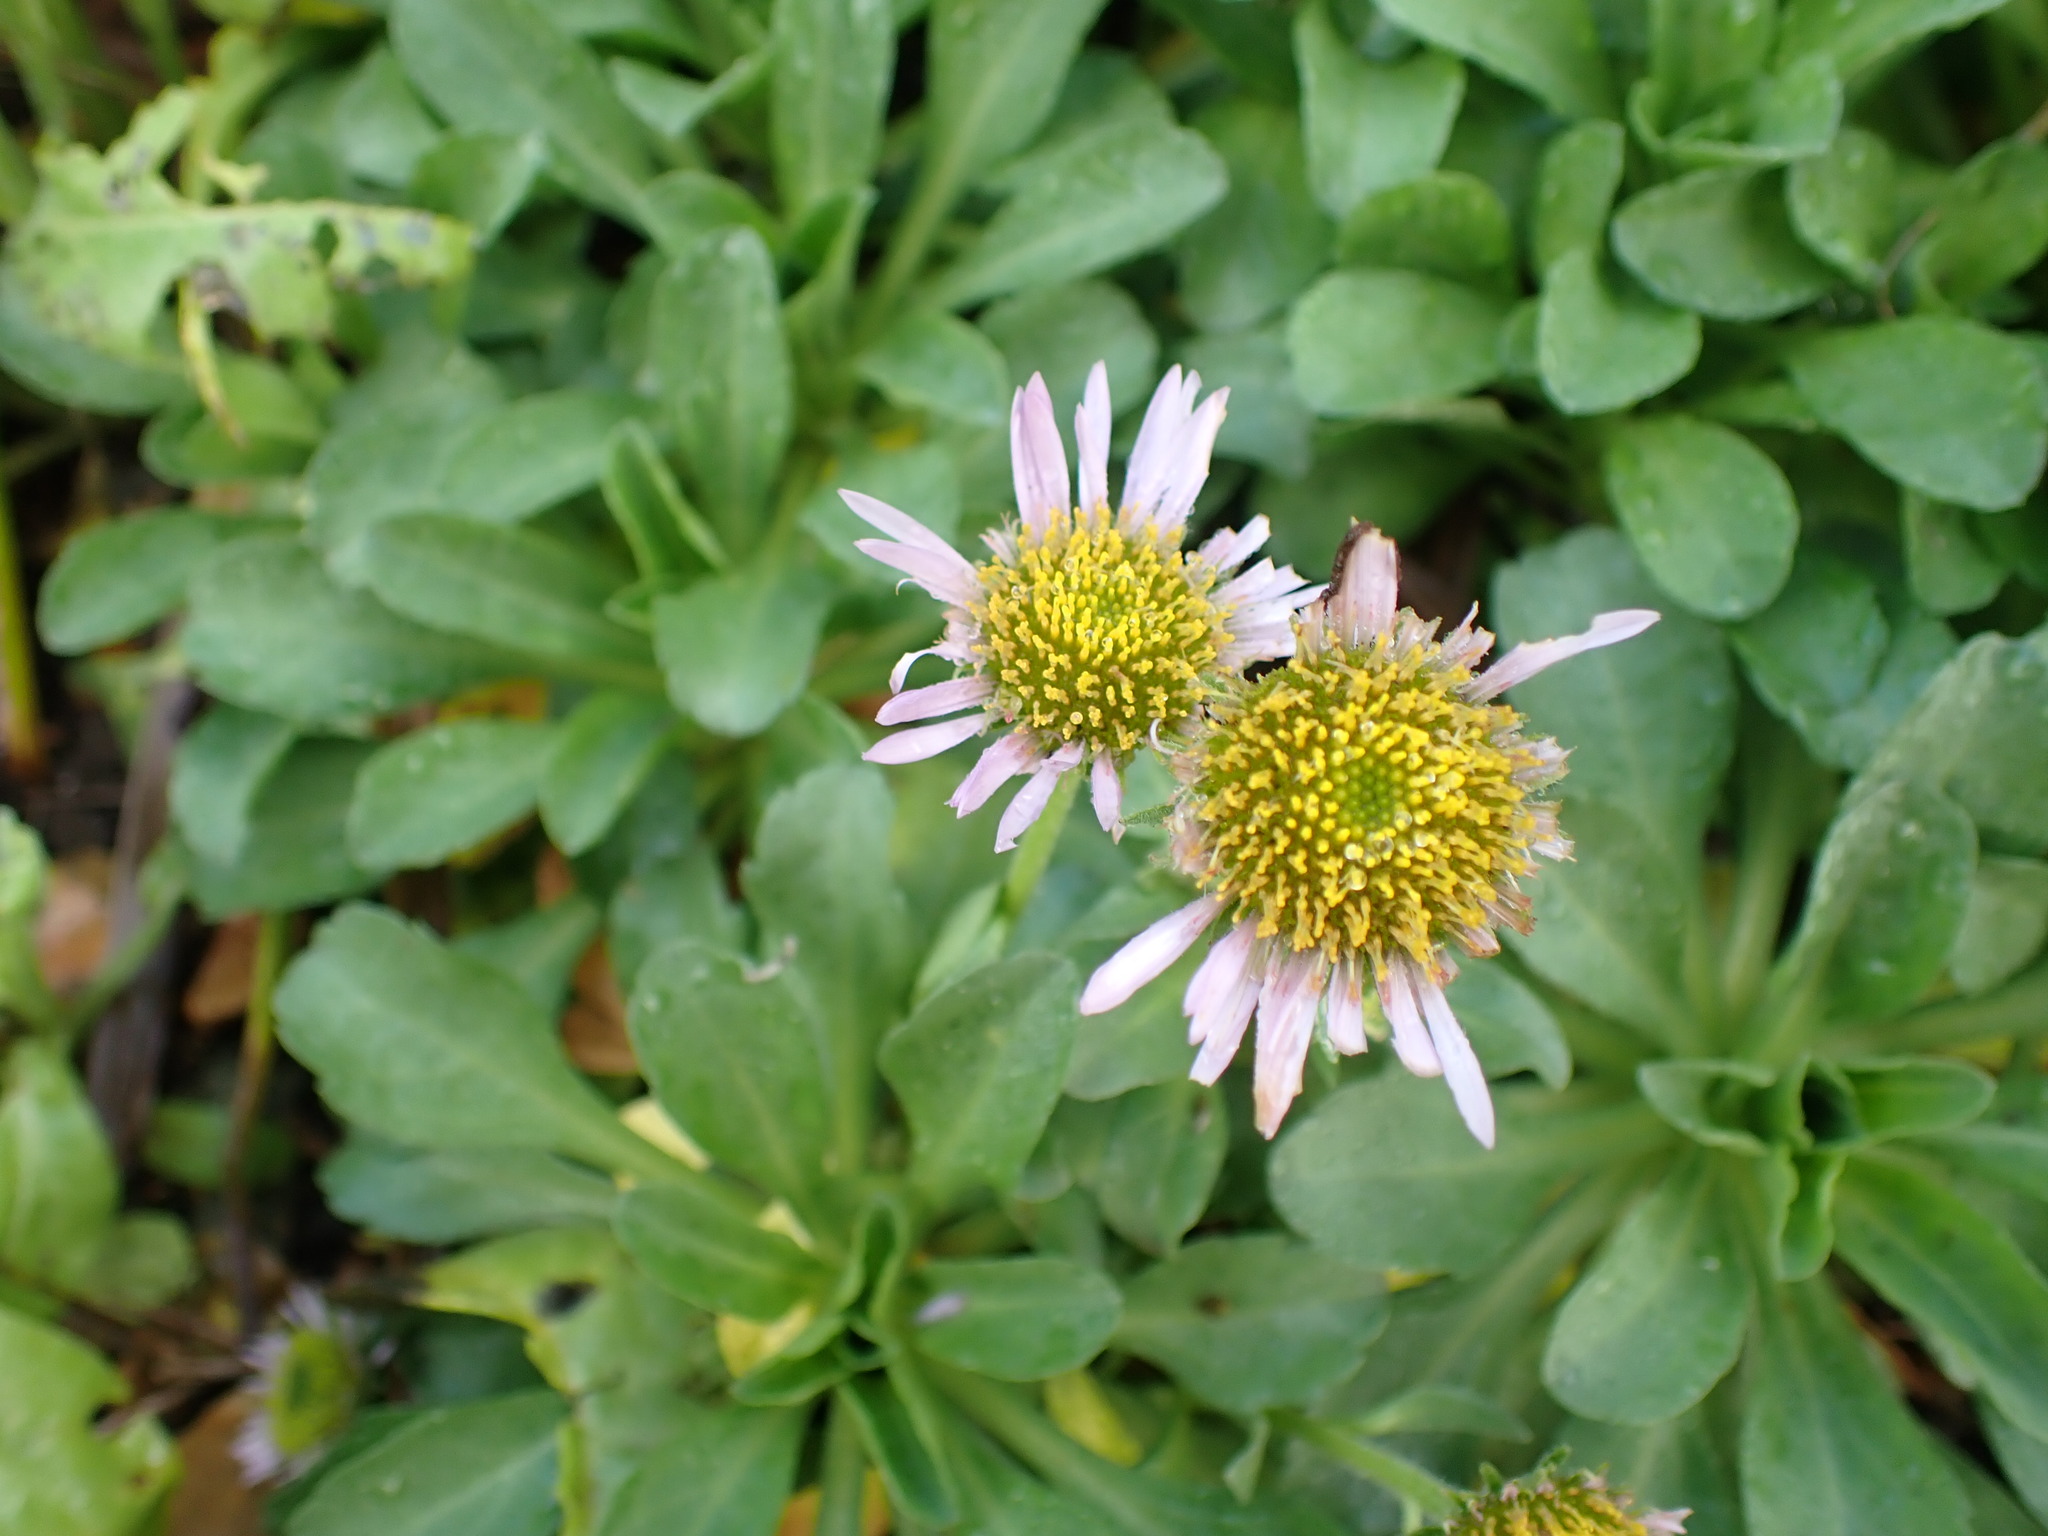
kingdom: Plantae
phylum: Tracheophyta
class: Magnoliopsida
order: Asterales
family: Asteraceae
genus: Erigeron
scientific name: Erigeron glaucus
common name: Seaside daisy
